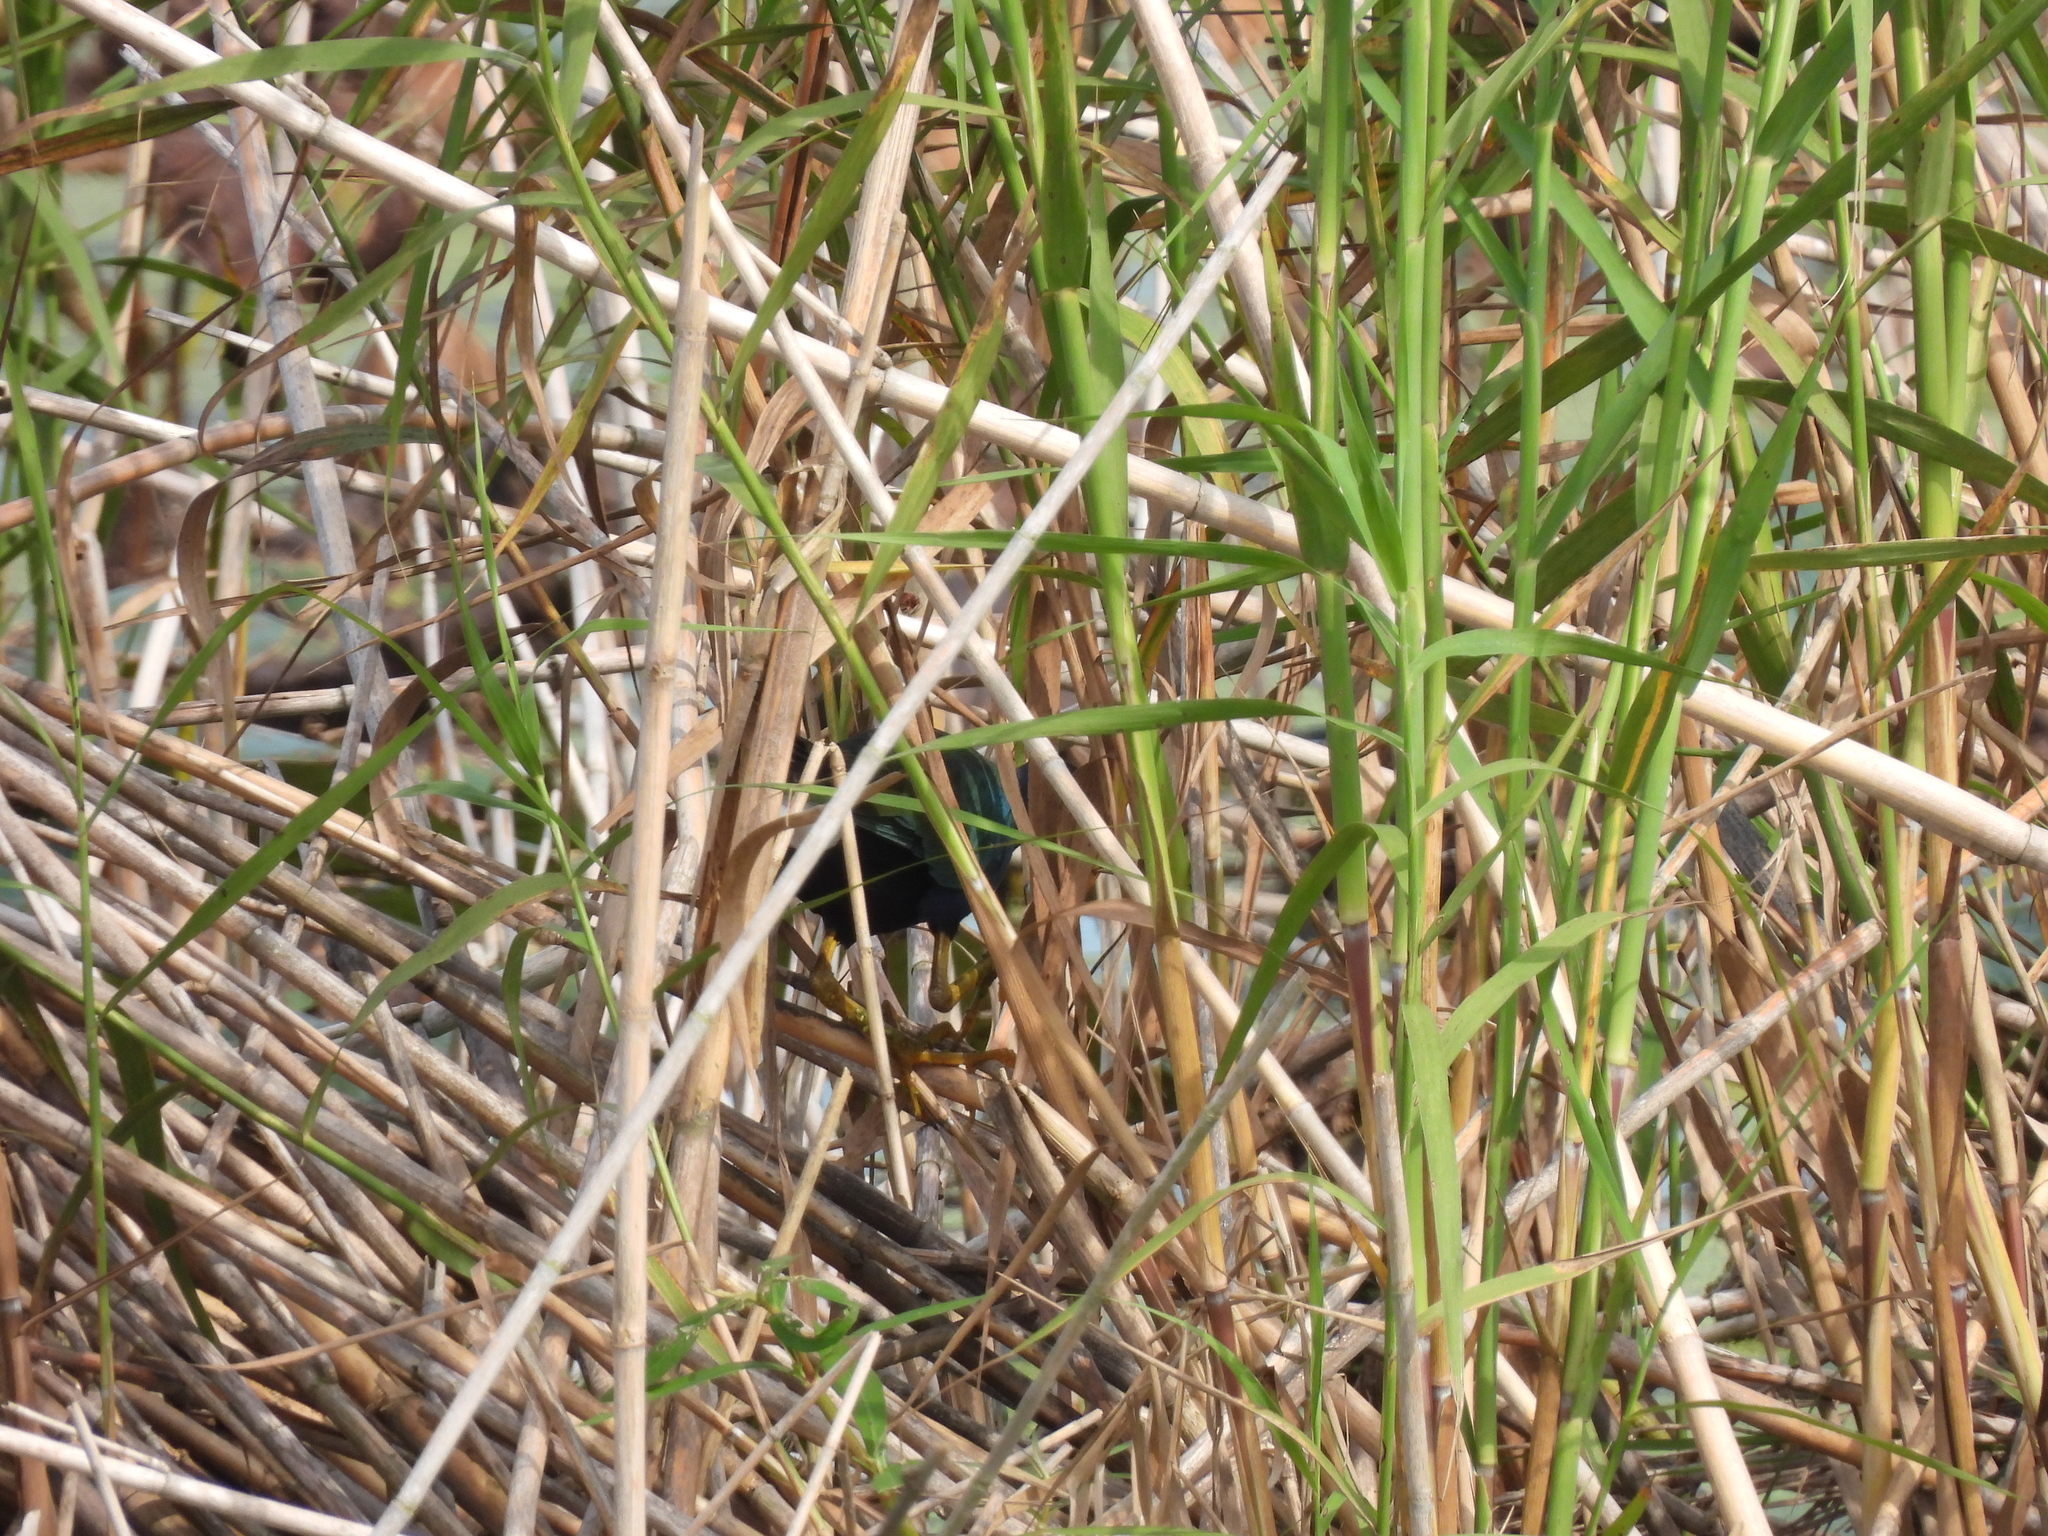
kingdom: Animalia
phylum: Chordata
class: Aves
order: Gruiformes
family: Rallidae
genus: Porphyrio
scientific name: Porphyrio martinica
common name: Purple gallinule
